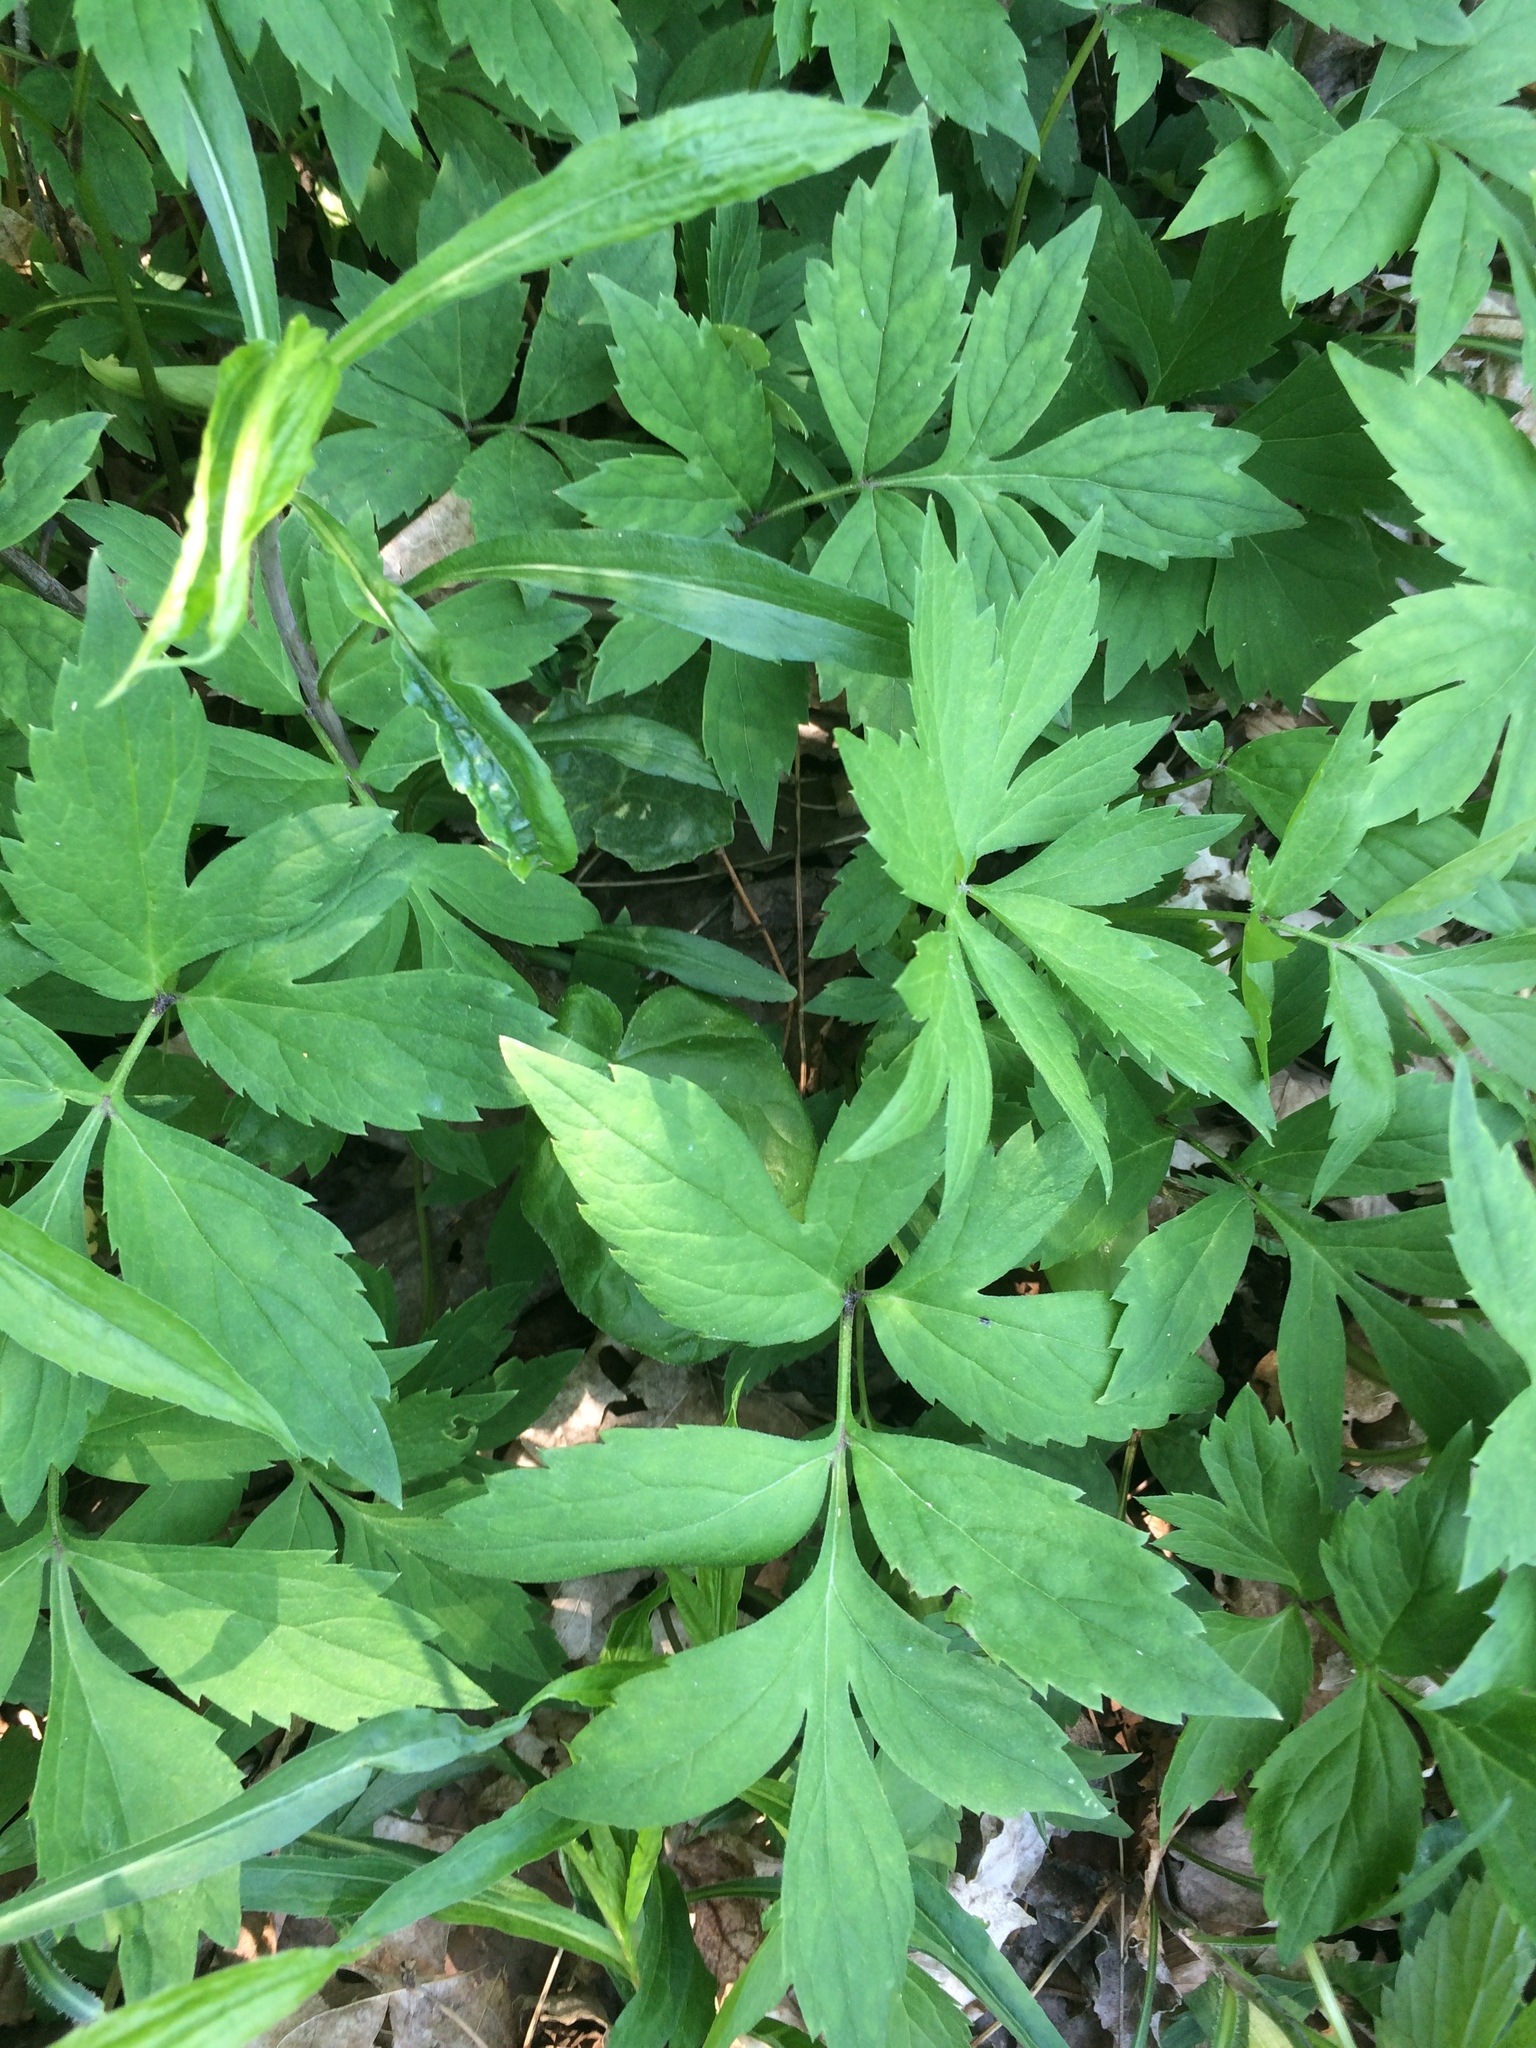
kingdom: Plantae
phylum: Tracheophyta
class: Magnoliopsida
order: Boraginales
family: Hydrophyllaceae
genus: Hydrophyllum
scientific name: Hydrophyllum virginianum
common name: Virginia waterleaf
